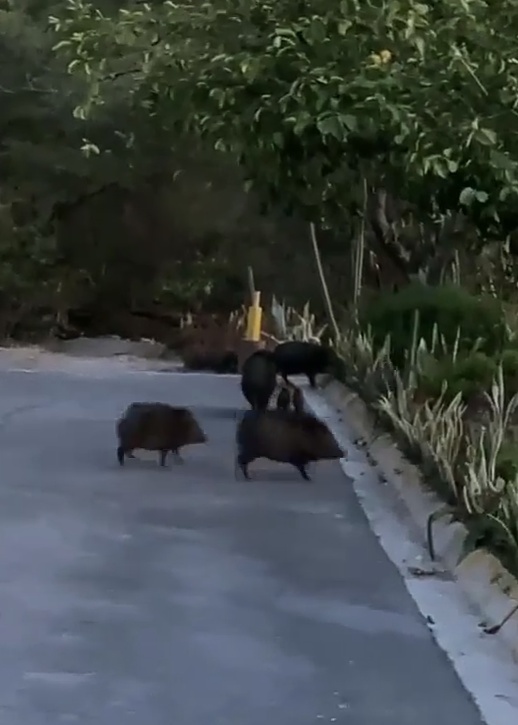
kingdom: Animalia
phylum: Chordata
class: Mammalia
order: Artiodactyla
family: Tayassuidae
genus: Pecari
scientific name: Pecari tajacu
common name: Collared peccary
